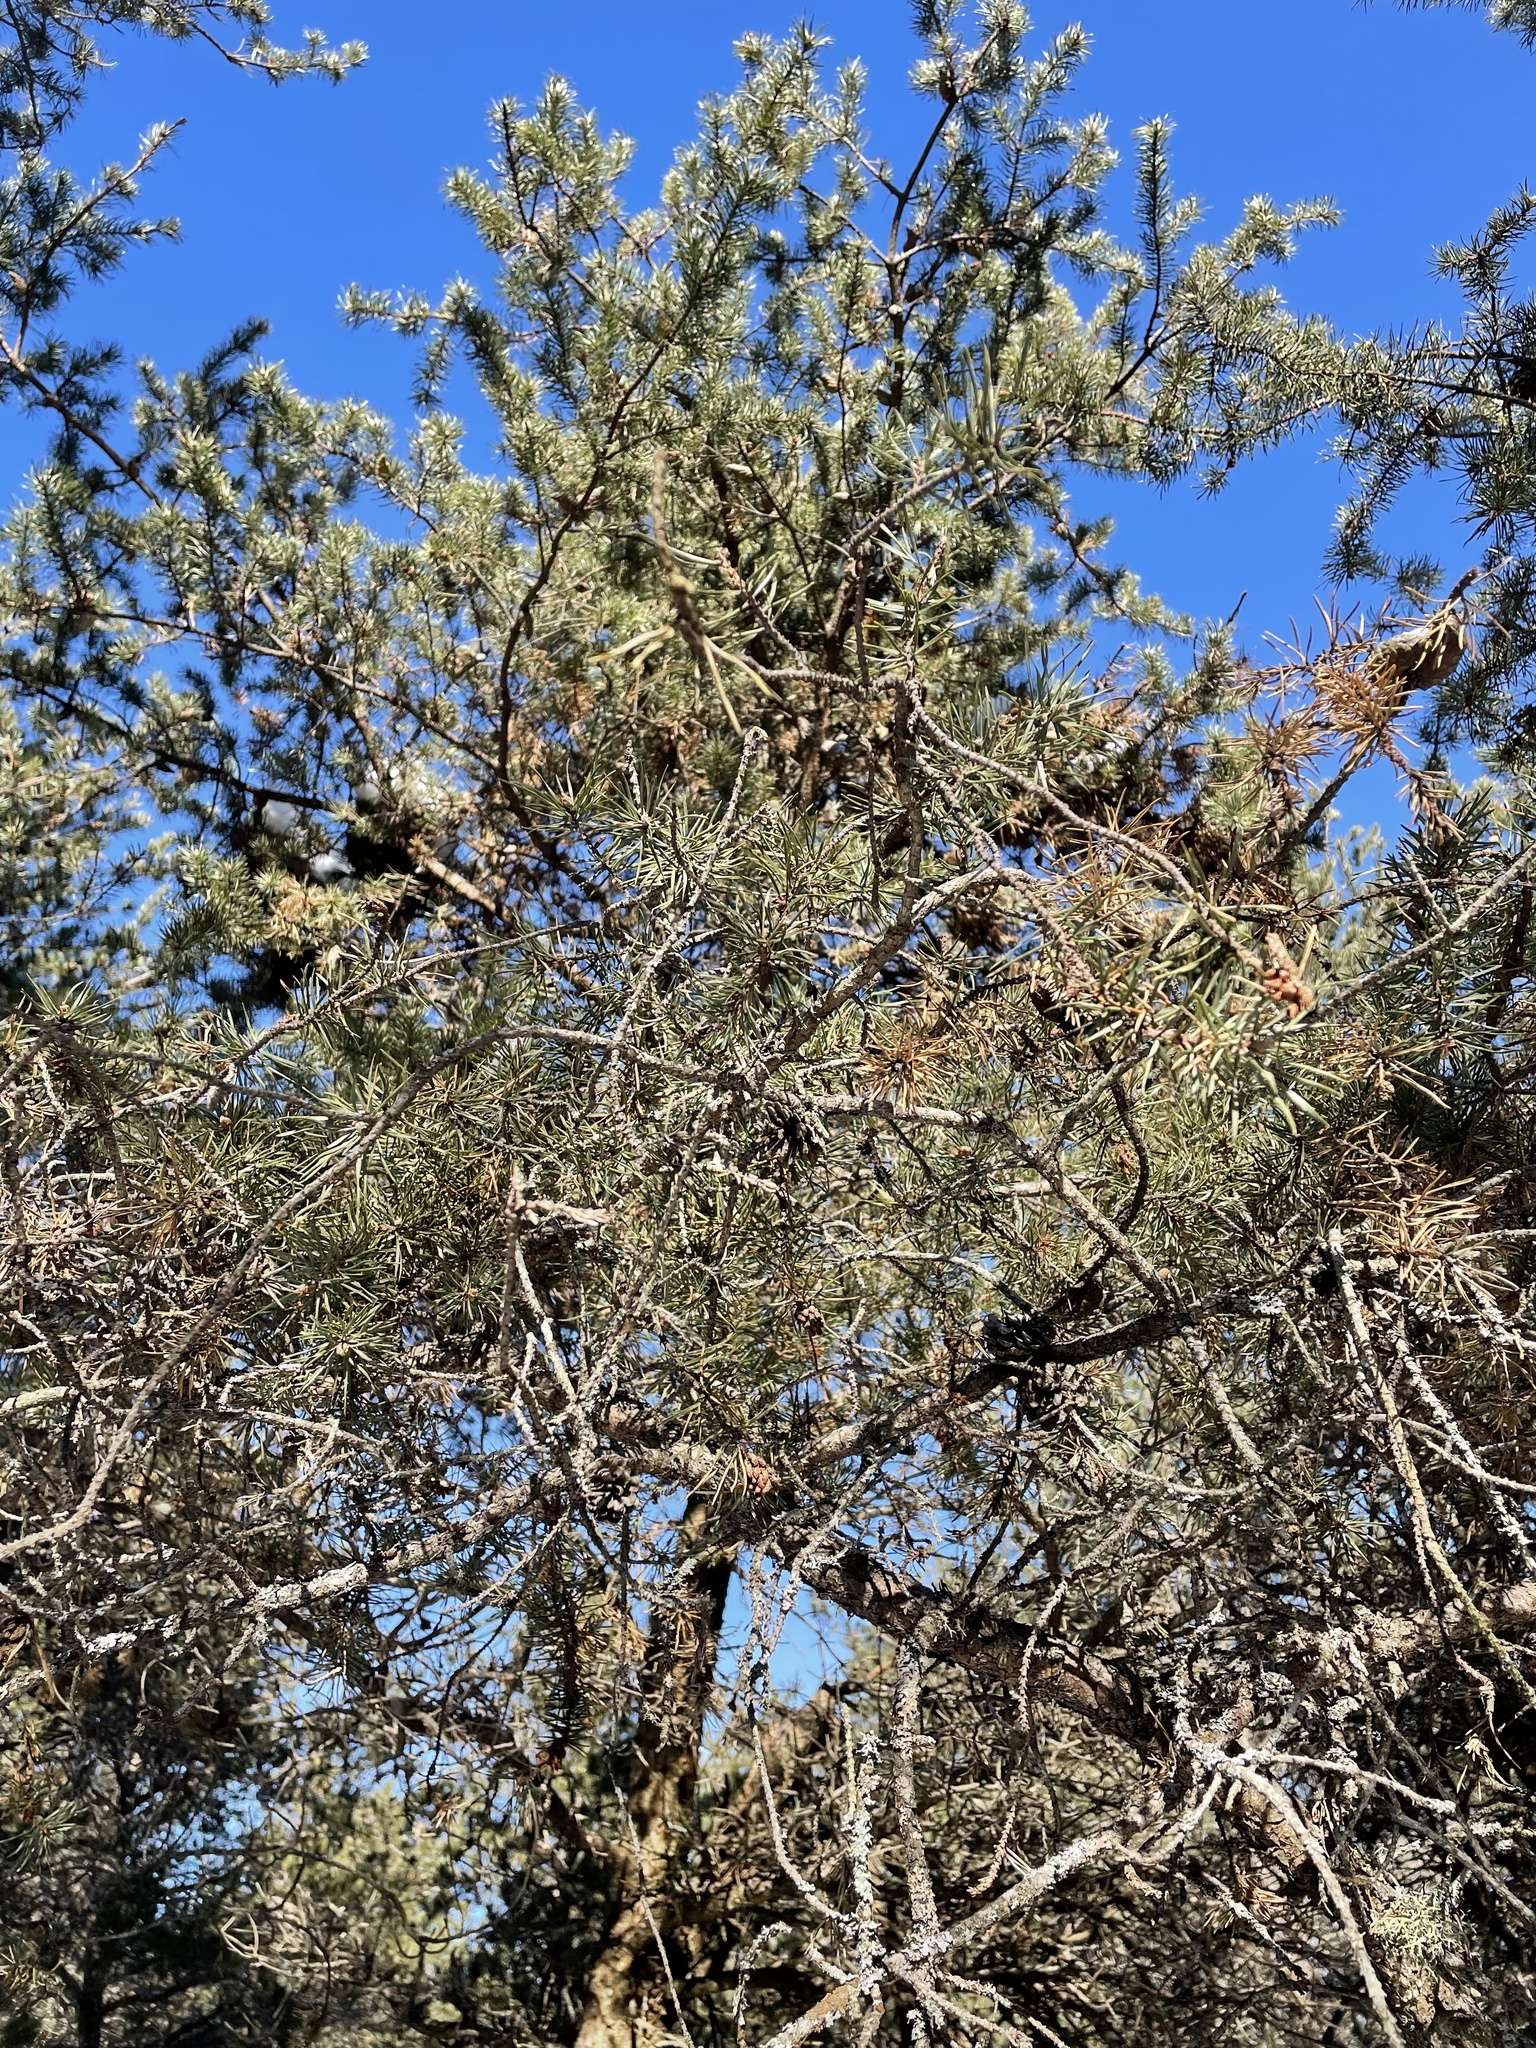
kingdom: Plantae
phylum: Tracheophyta
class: Pinopsida
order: Pinales
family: Pinaceae
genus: Pinus
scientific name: Pinus banksiana
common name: Jack pine
